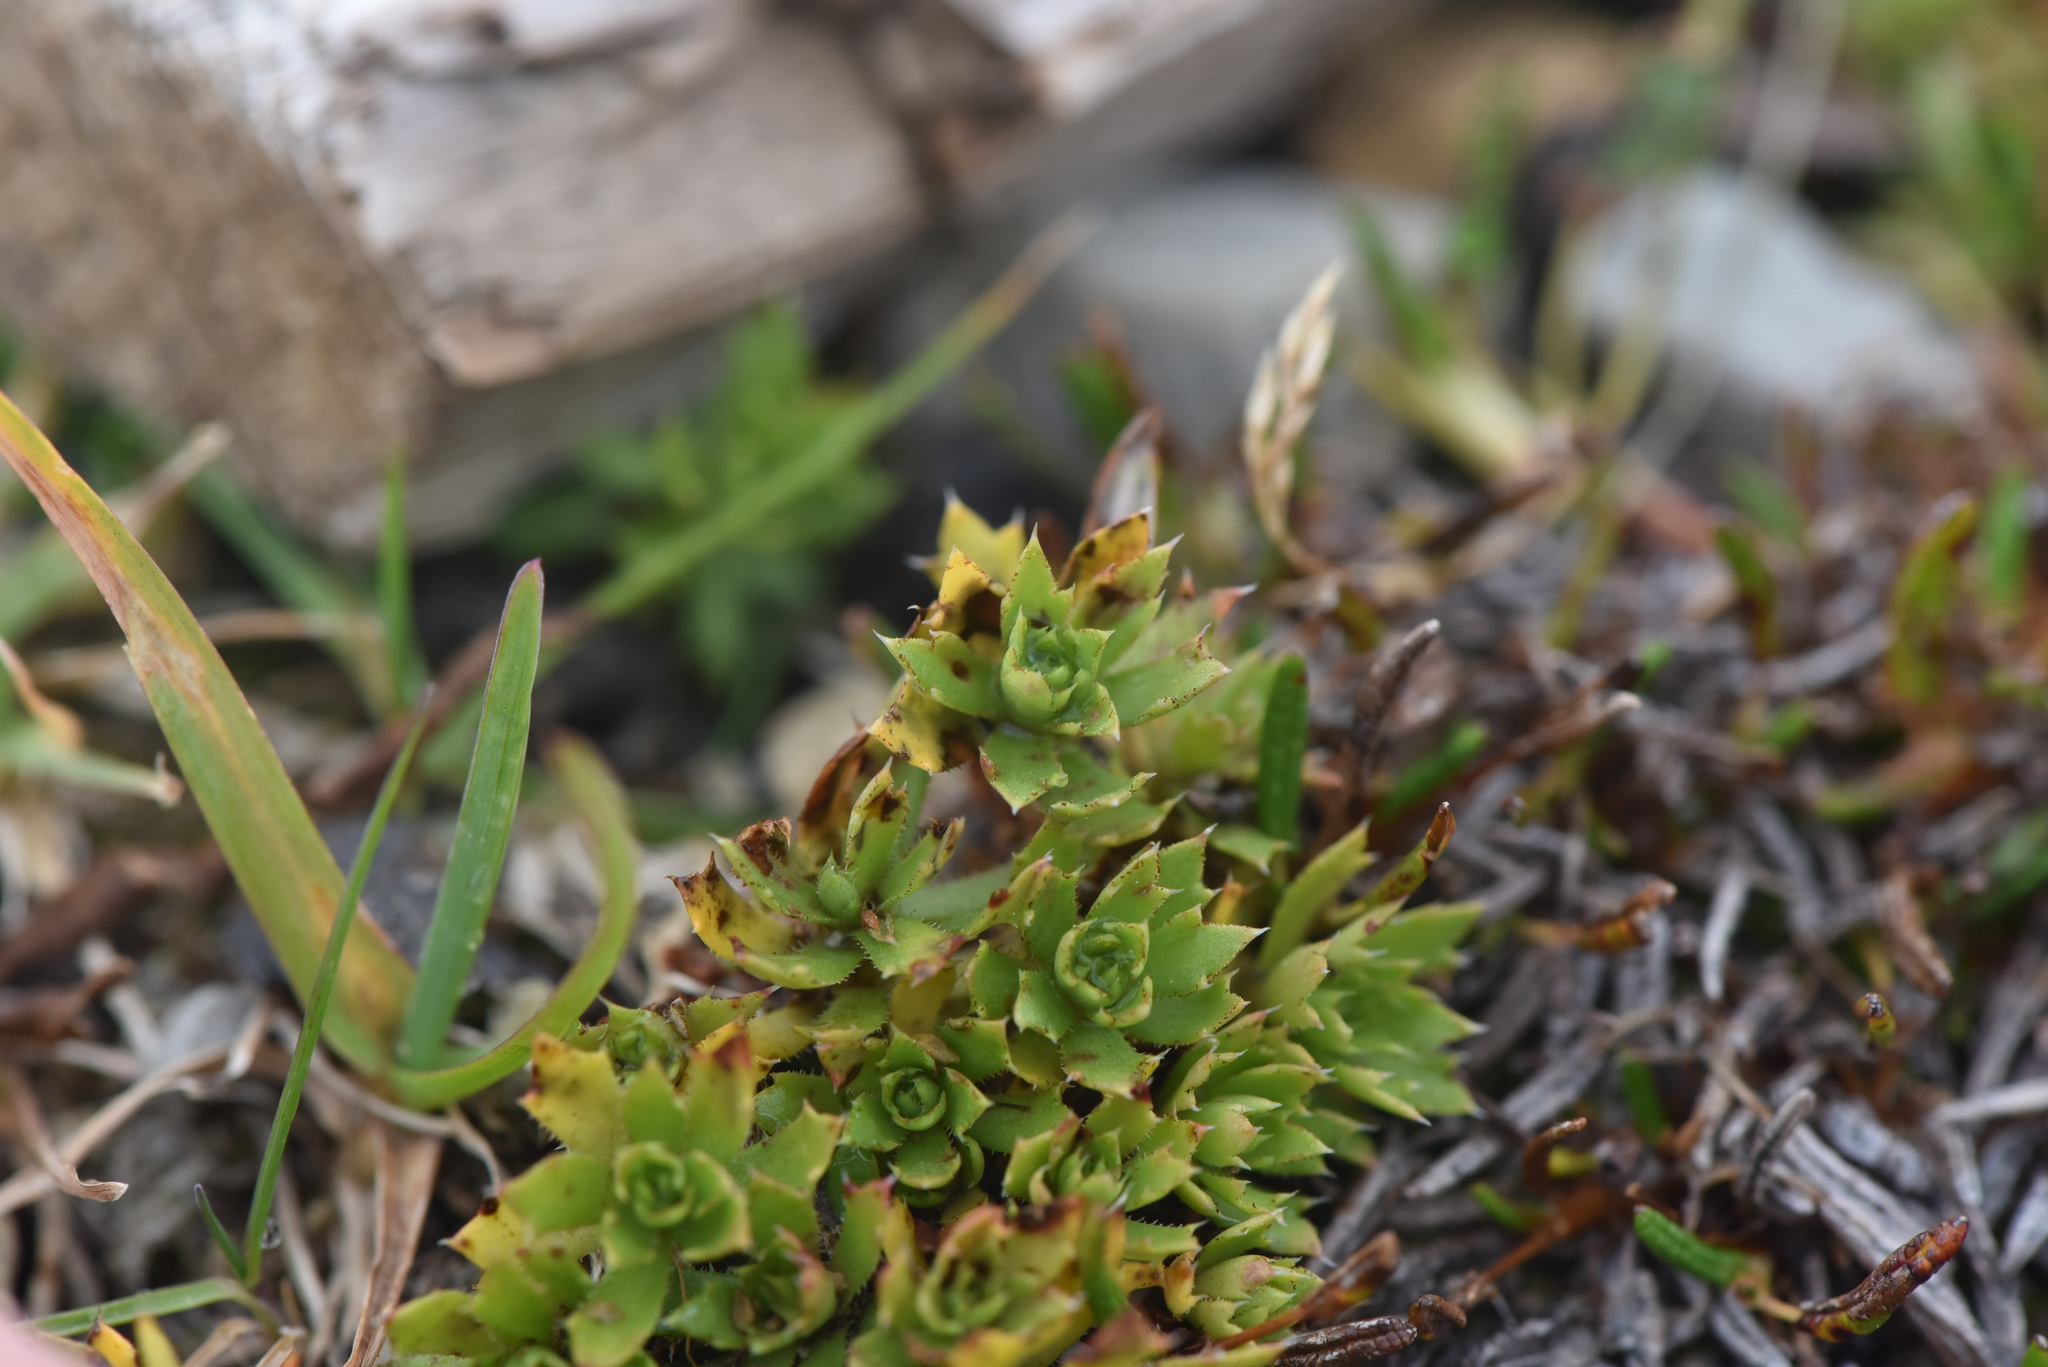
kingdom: Plantae
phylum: Tracheophyta
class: Magnoliopsida
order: Saxifragales
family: Saxifragaceae
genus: Saxifraga
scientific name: Saxifraga tricuspidata
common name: Prickly saxifrage
